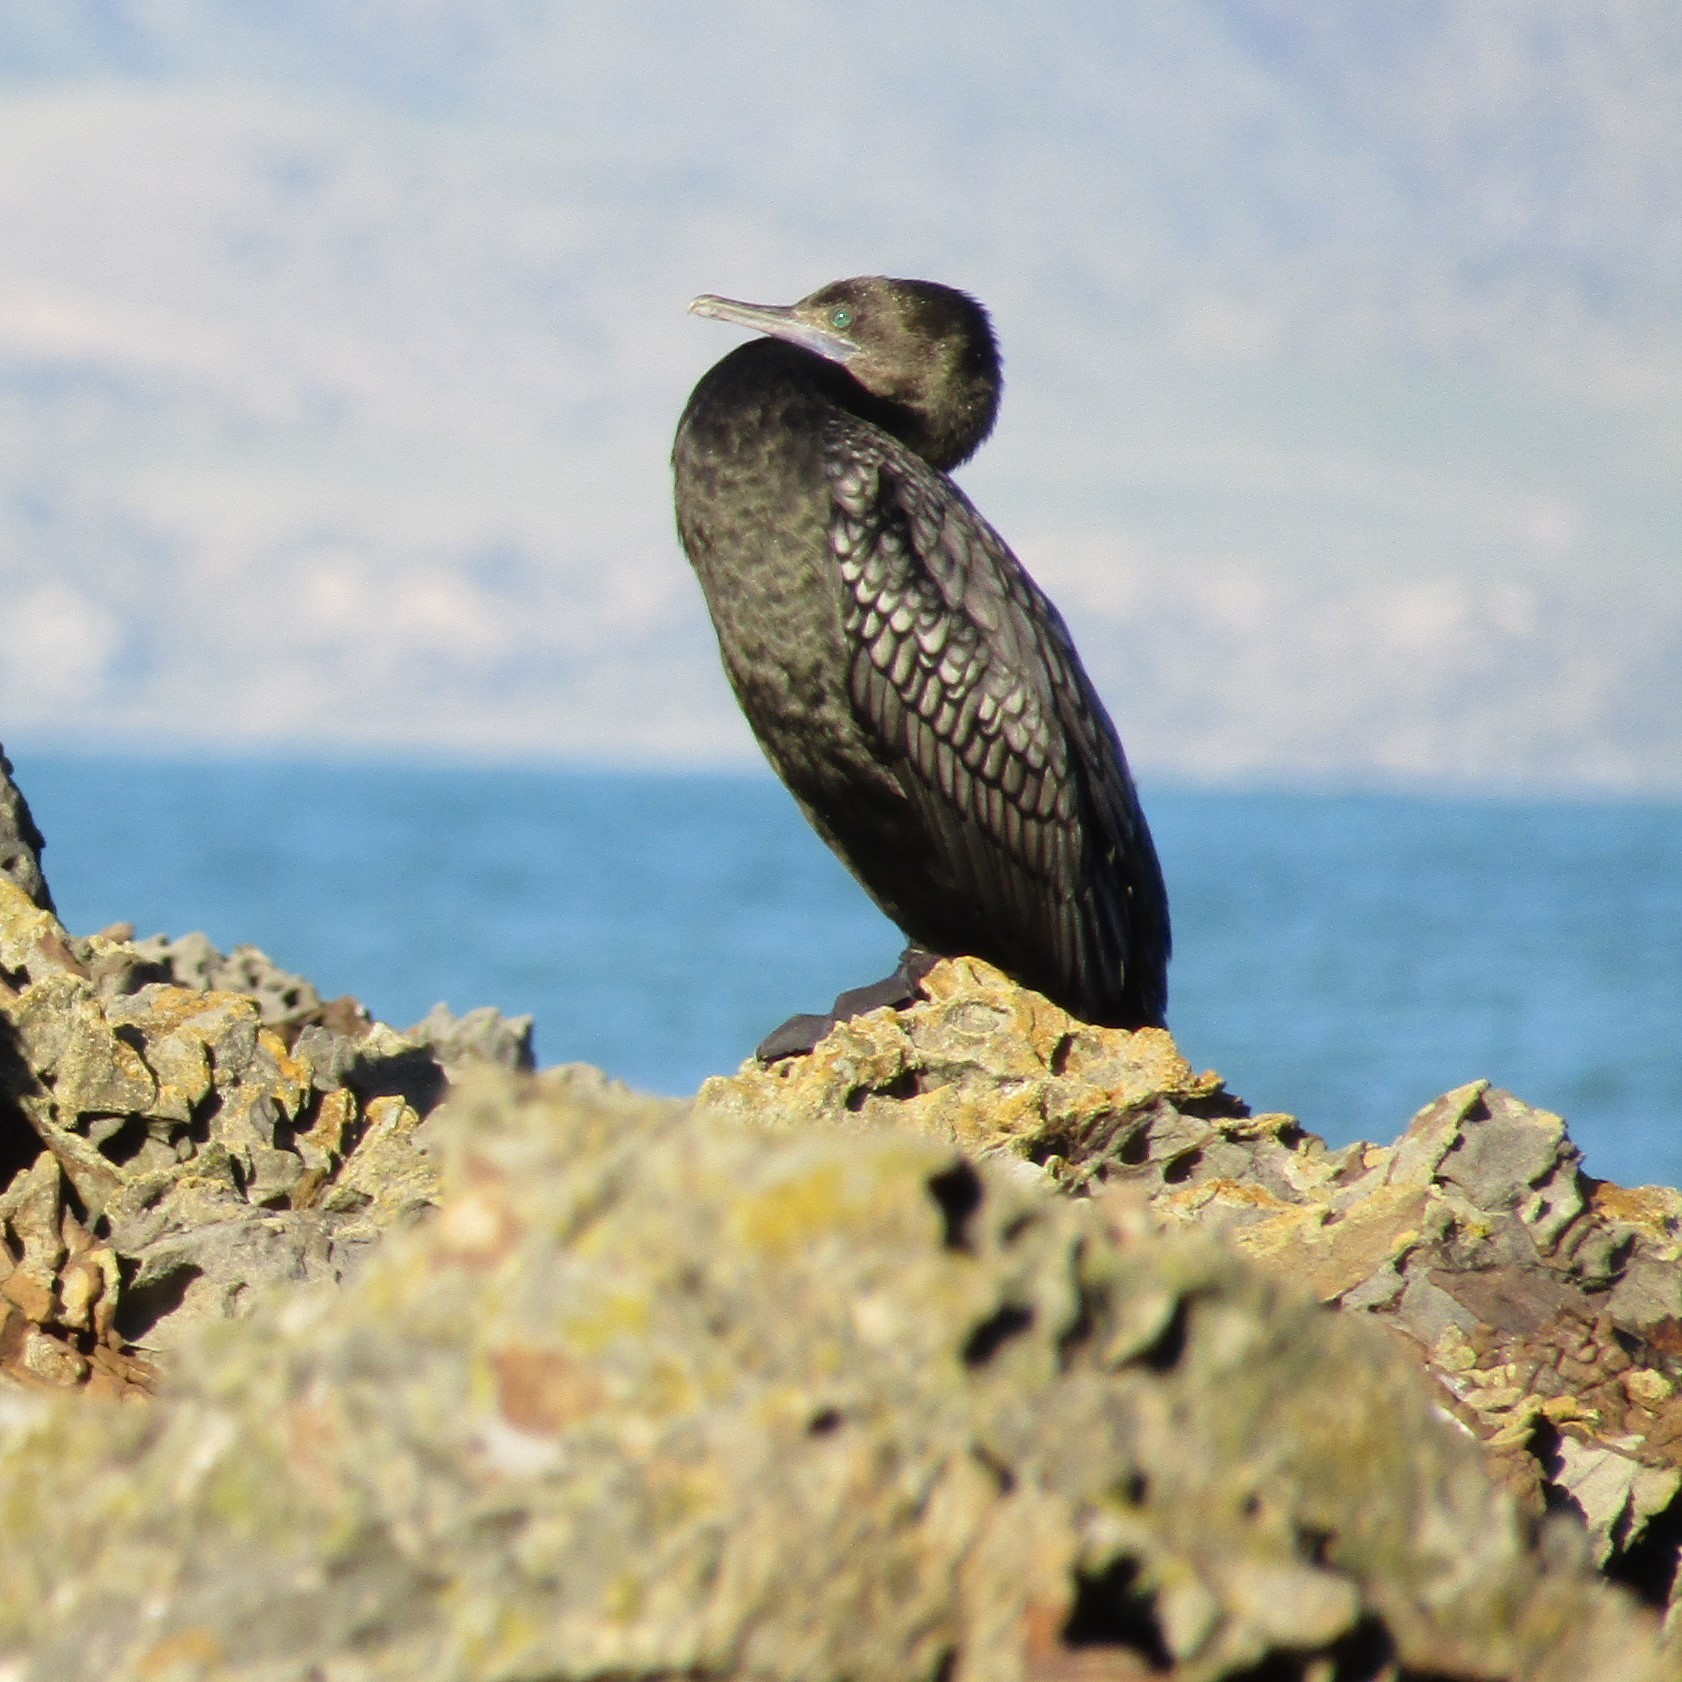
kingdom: Animalia
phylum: Chordata
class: Aves
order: Suliformes
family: Phalacrocoracidae
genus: Phalacrocorax
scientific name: Phalacrocorax sulcirostris
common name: Little black cormorant
